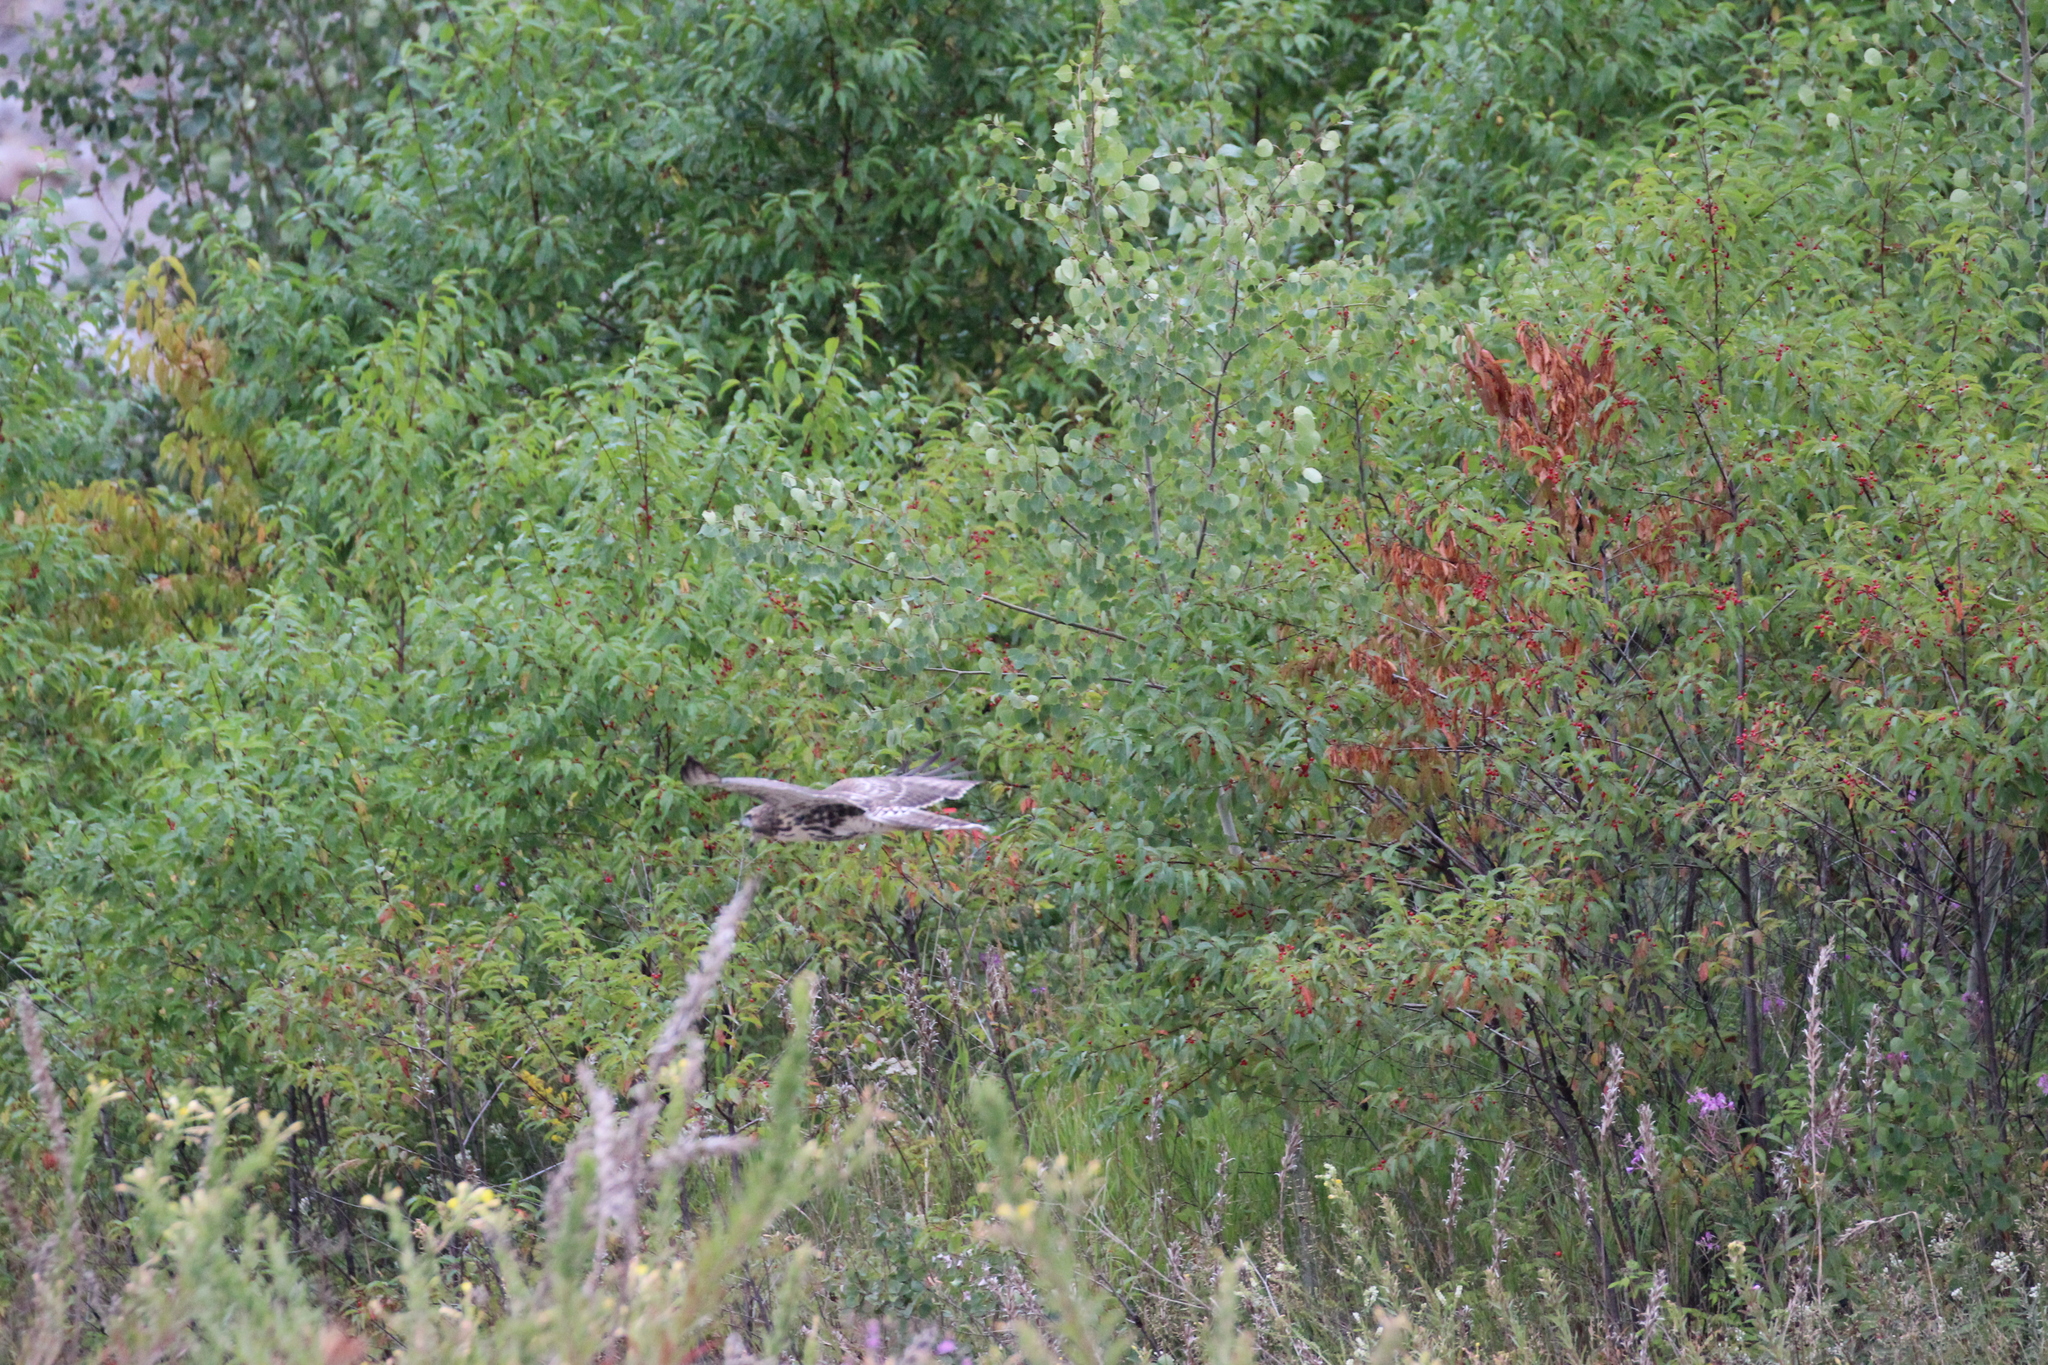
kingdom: Animalia
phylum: Chordata
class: Aves
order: Accipitriformes
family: Accipitridae
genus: Buteo
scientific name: Buteo jamaicensis
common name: Red-tailed hawk
